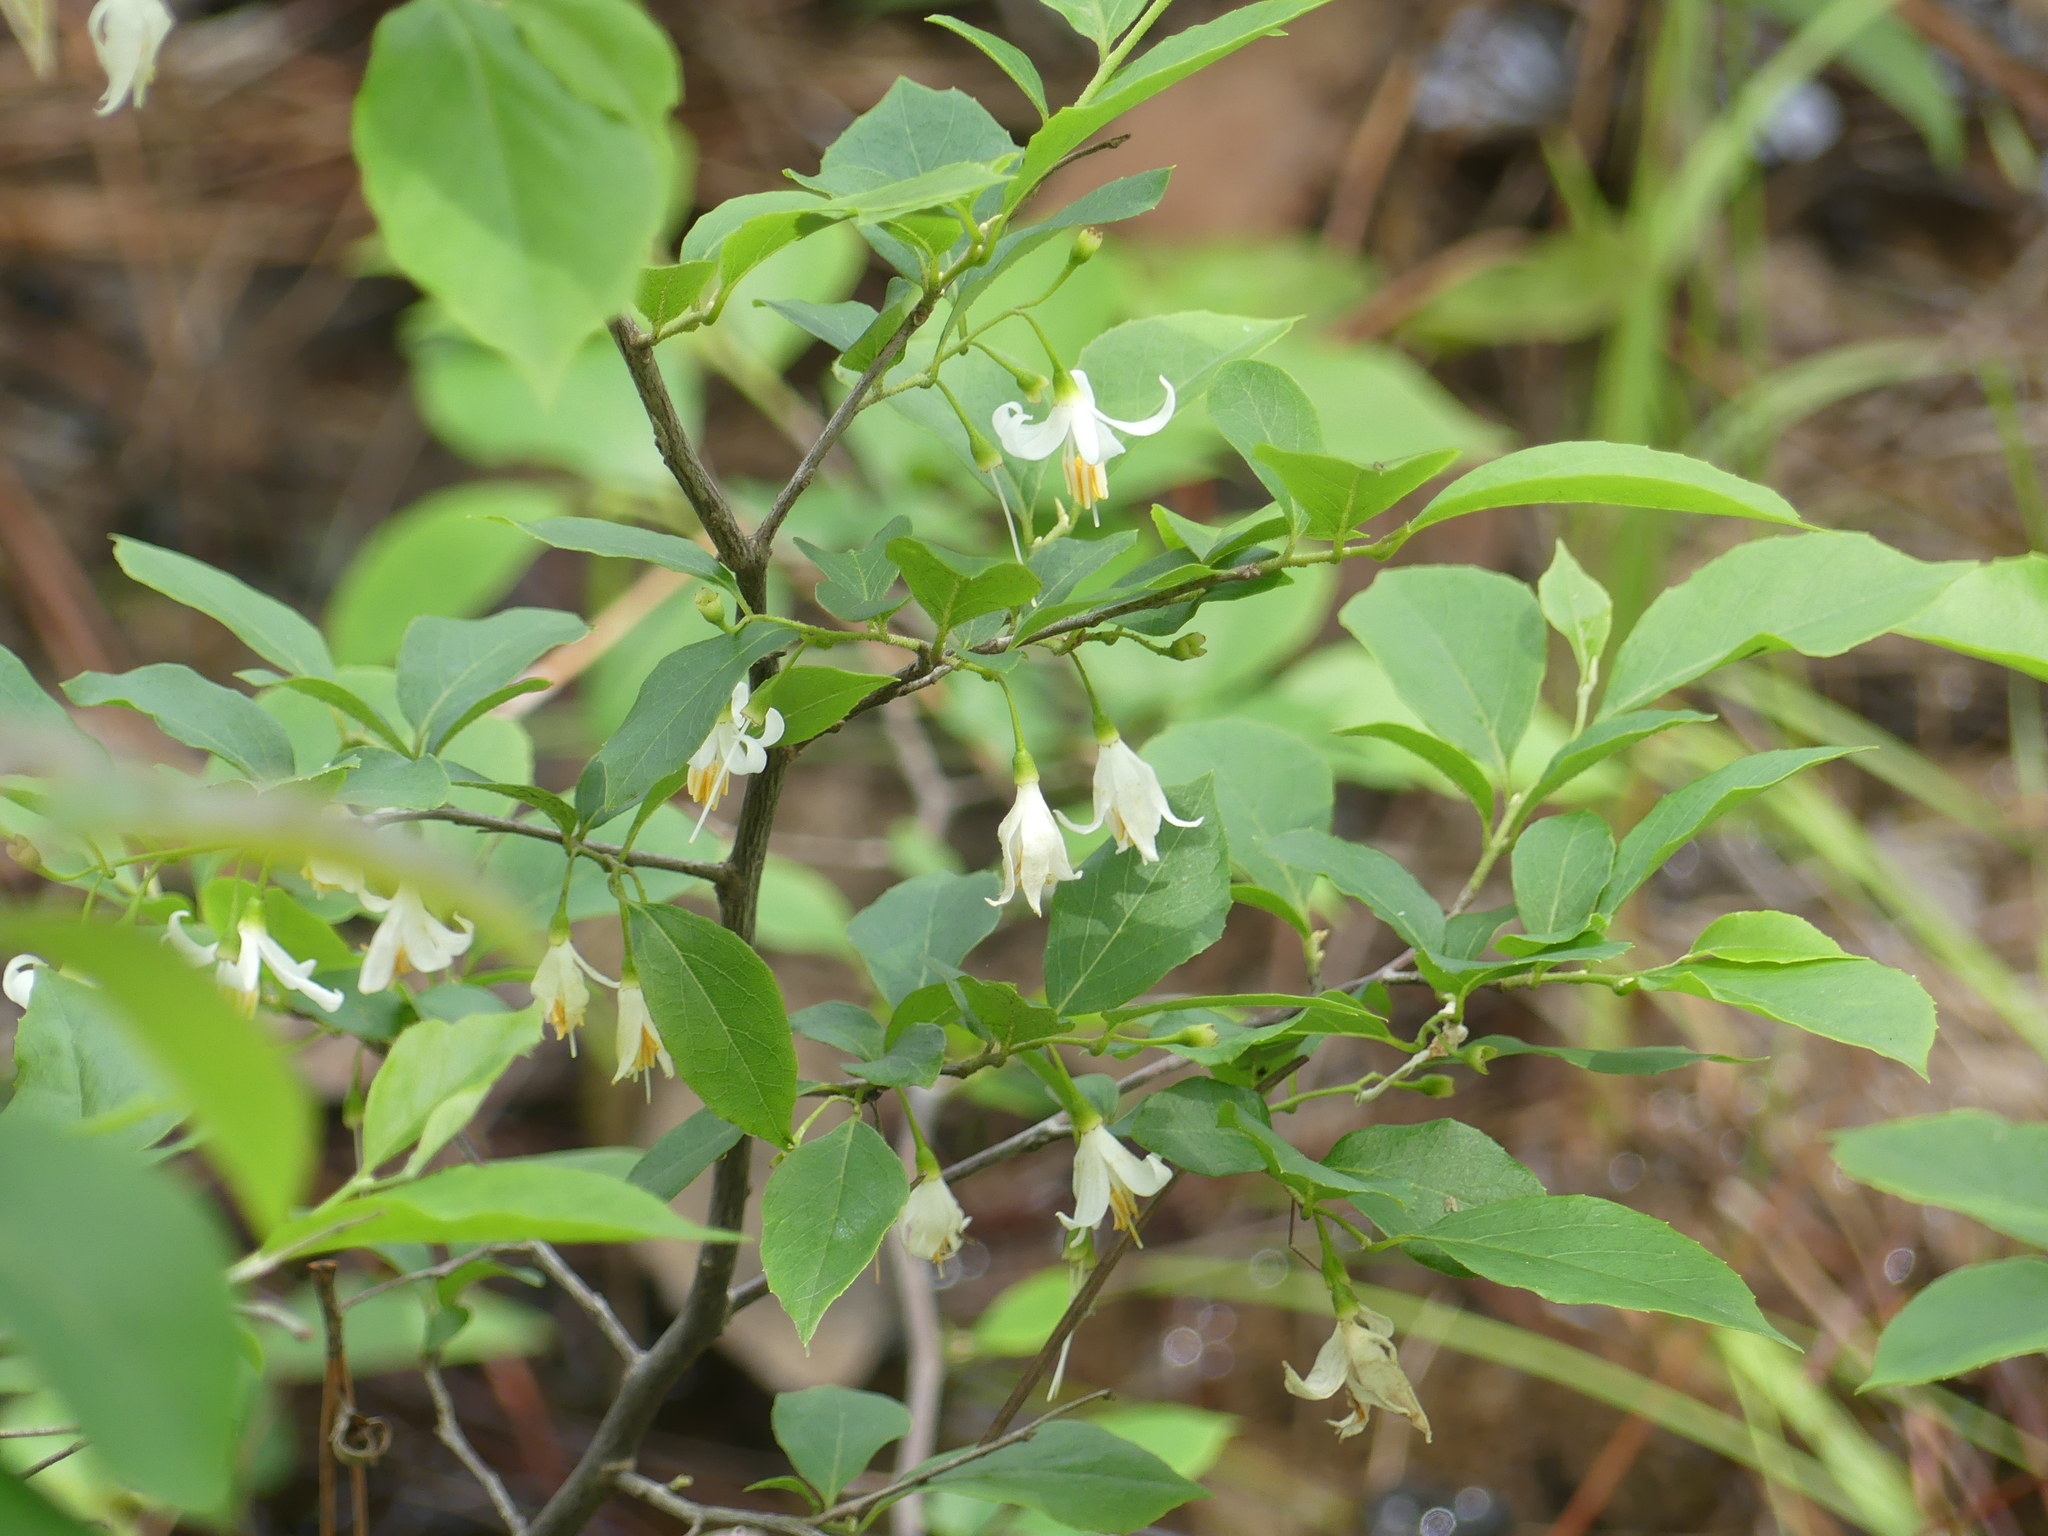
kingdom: Plantae
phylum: Tracheophyta
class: Magnoliopsida
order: Ericales
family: Styracaceae
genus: Styrax
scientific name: Styrax americanus
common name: American snowbell
